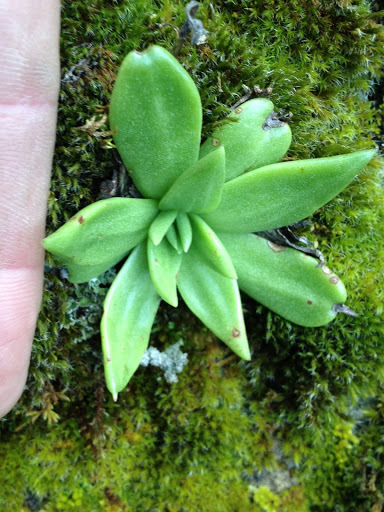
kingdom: Plantae
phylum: Tracheophyta
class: Magnoliopsida
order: Saxifragales
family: Crassulaceae
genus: Dudleya
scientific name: Dudleya cymosa
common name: Canyon dudleya
